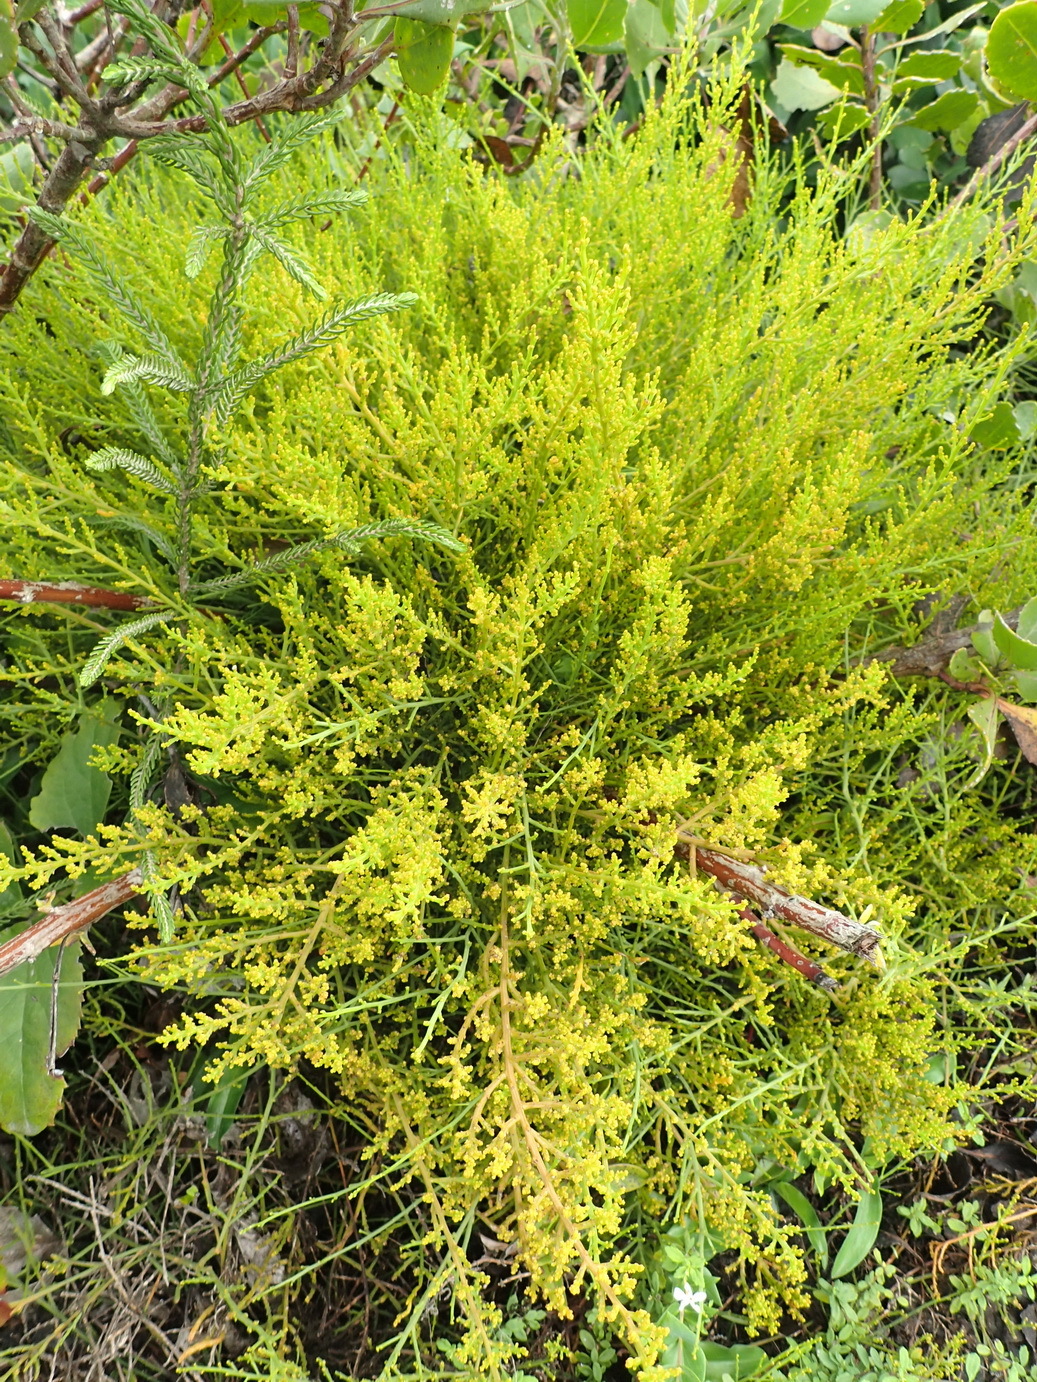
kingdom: Plantae
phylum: Tracheophyta
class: Magnoliopsida
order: Santalales
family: Thesiaceae
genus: Thesium
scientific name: Thesium fragile
